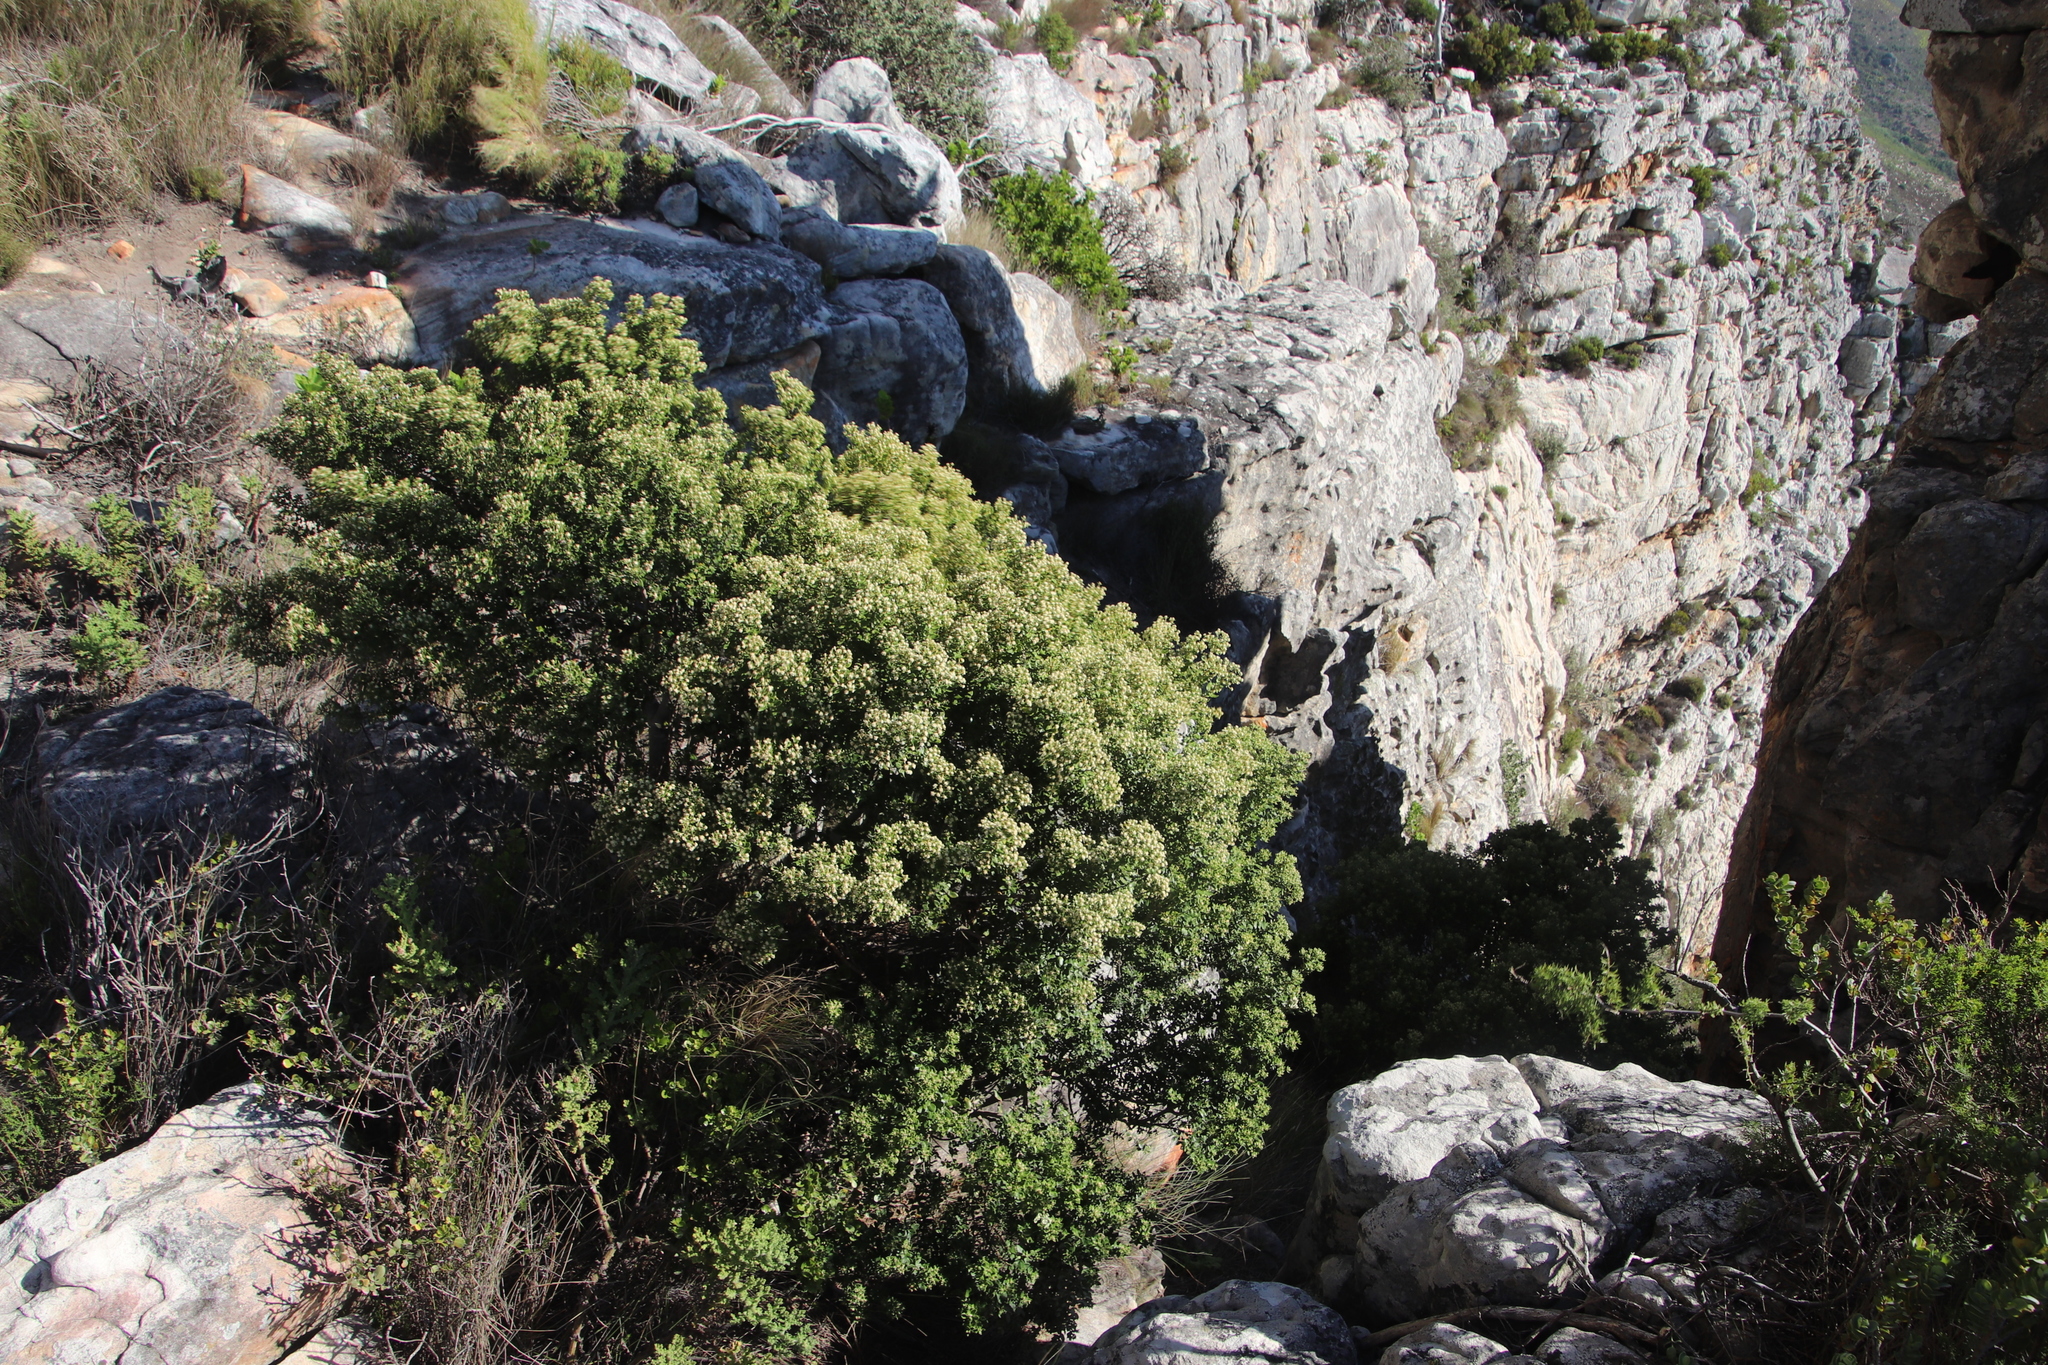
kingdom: Plantae
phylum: Tracheophyta
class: Magnoliopsida
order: Rosales
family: Rhamnaceae
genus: Phylica
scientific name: Phylica buxifolia
